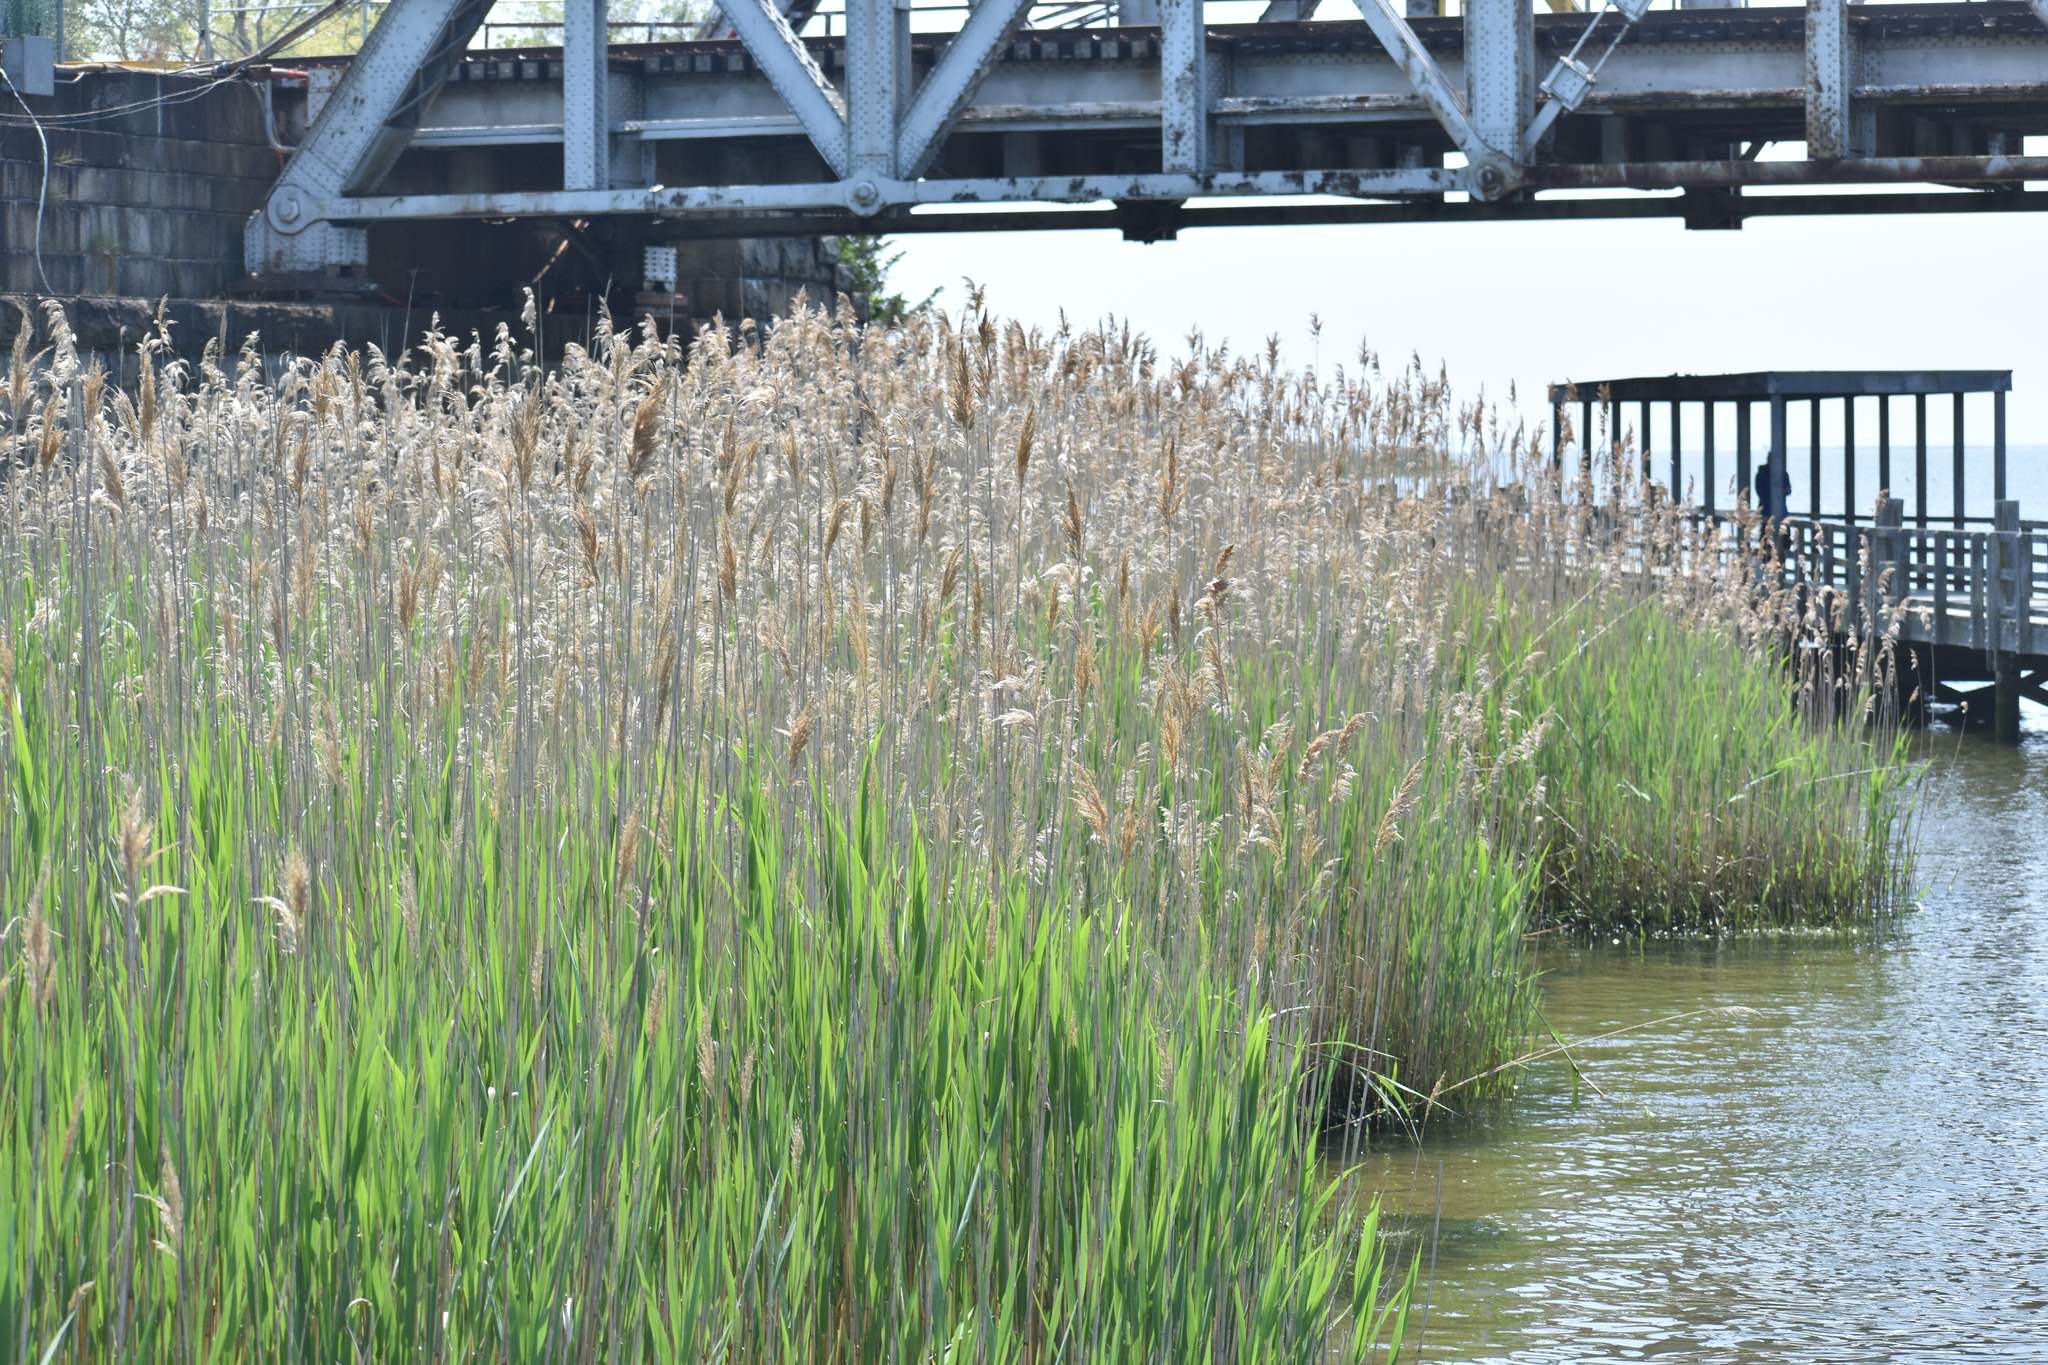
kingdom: Plantae
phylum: Tracheophyta
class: Liliopsida
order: Poales
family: Poaceae
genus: Phragmites
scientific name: Phragmites australis
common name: Common reed
